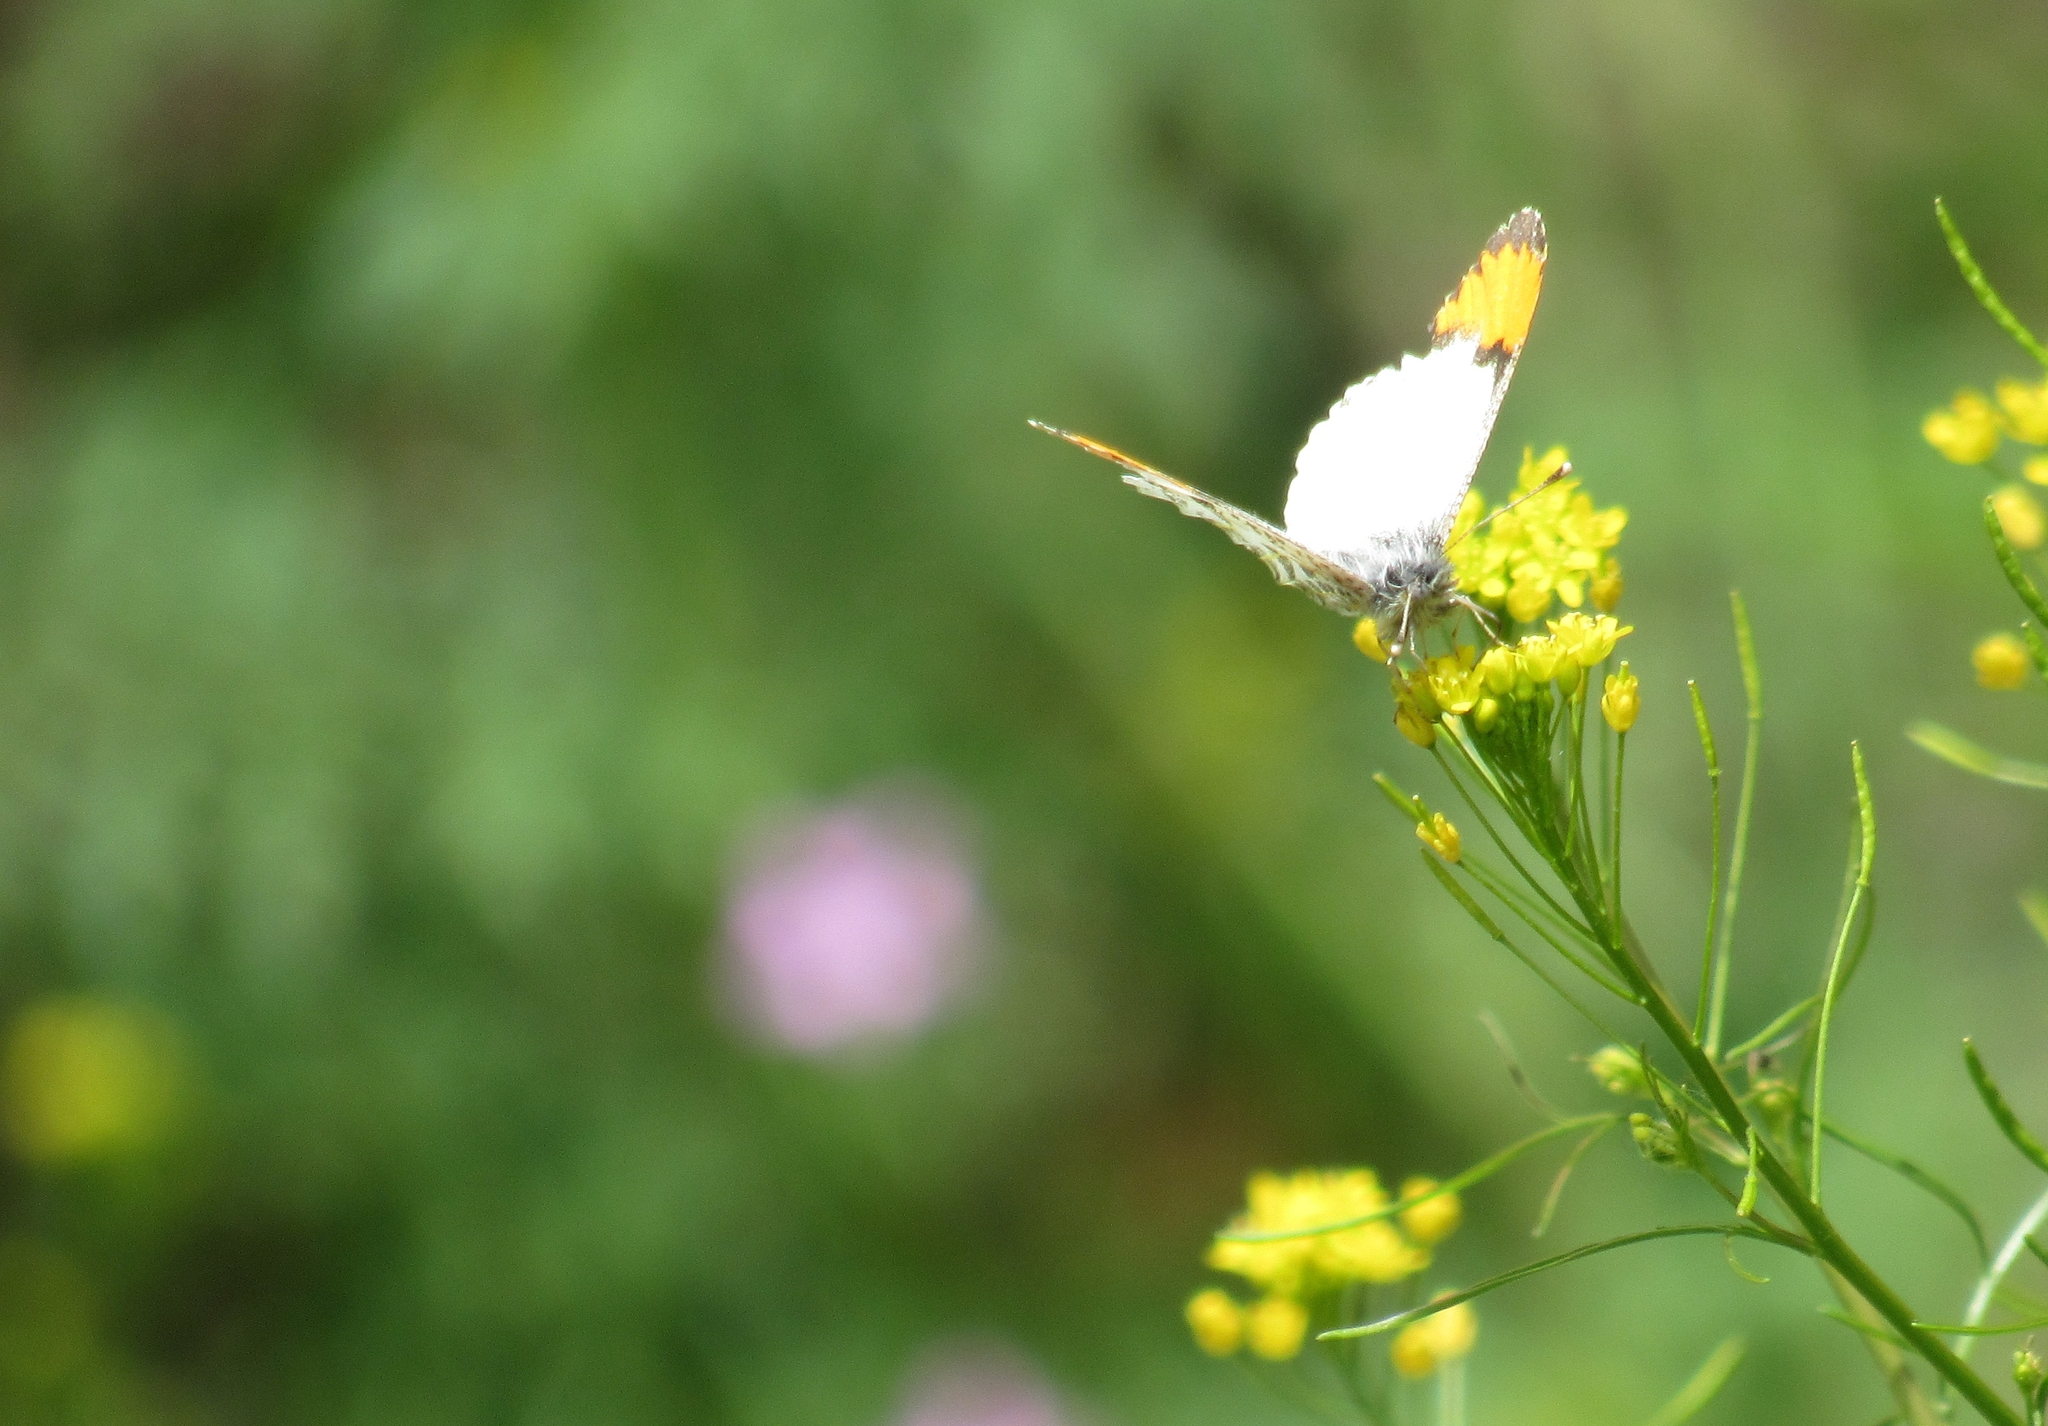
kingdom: Animalia
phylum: Arthropoda
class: Insecta
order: Lepidoptera
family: Pieridae
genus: Anthocharis
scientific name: Anthocharis julia
